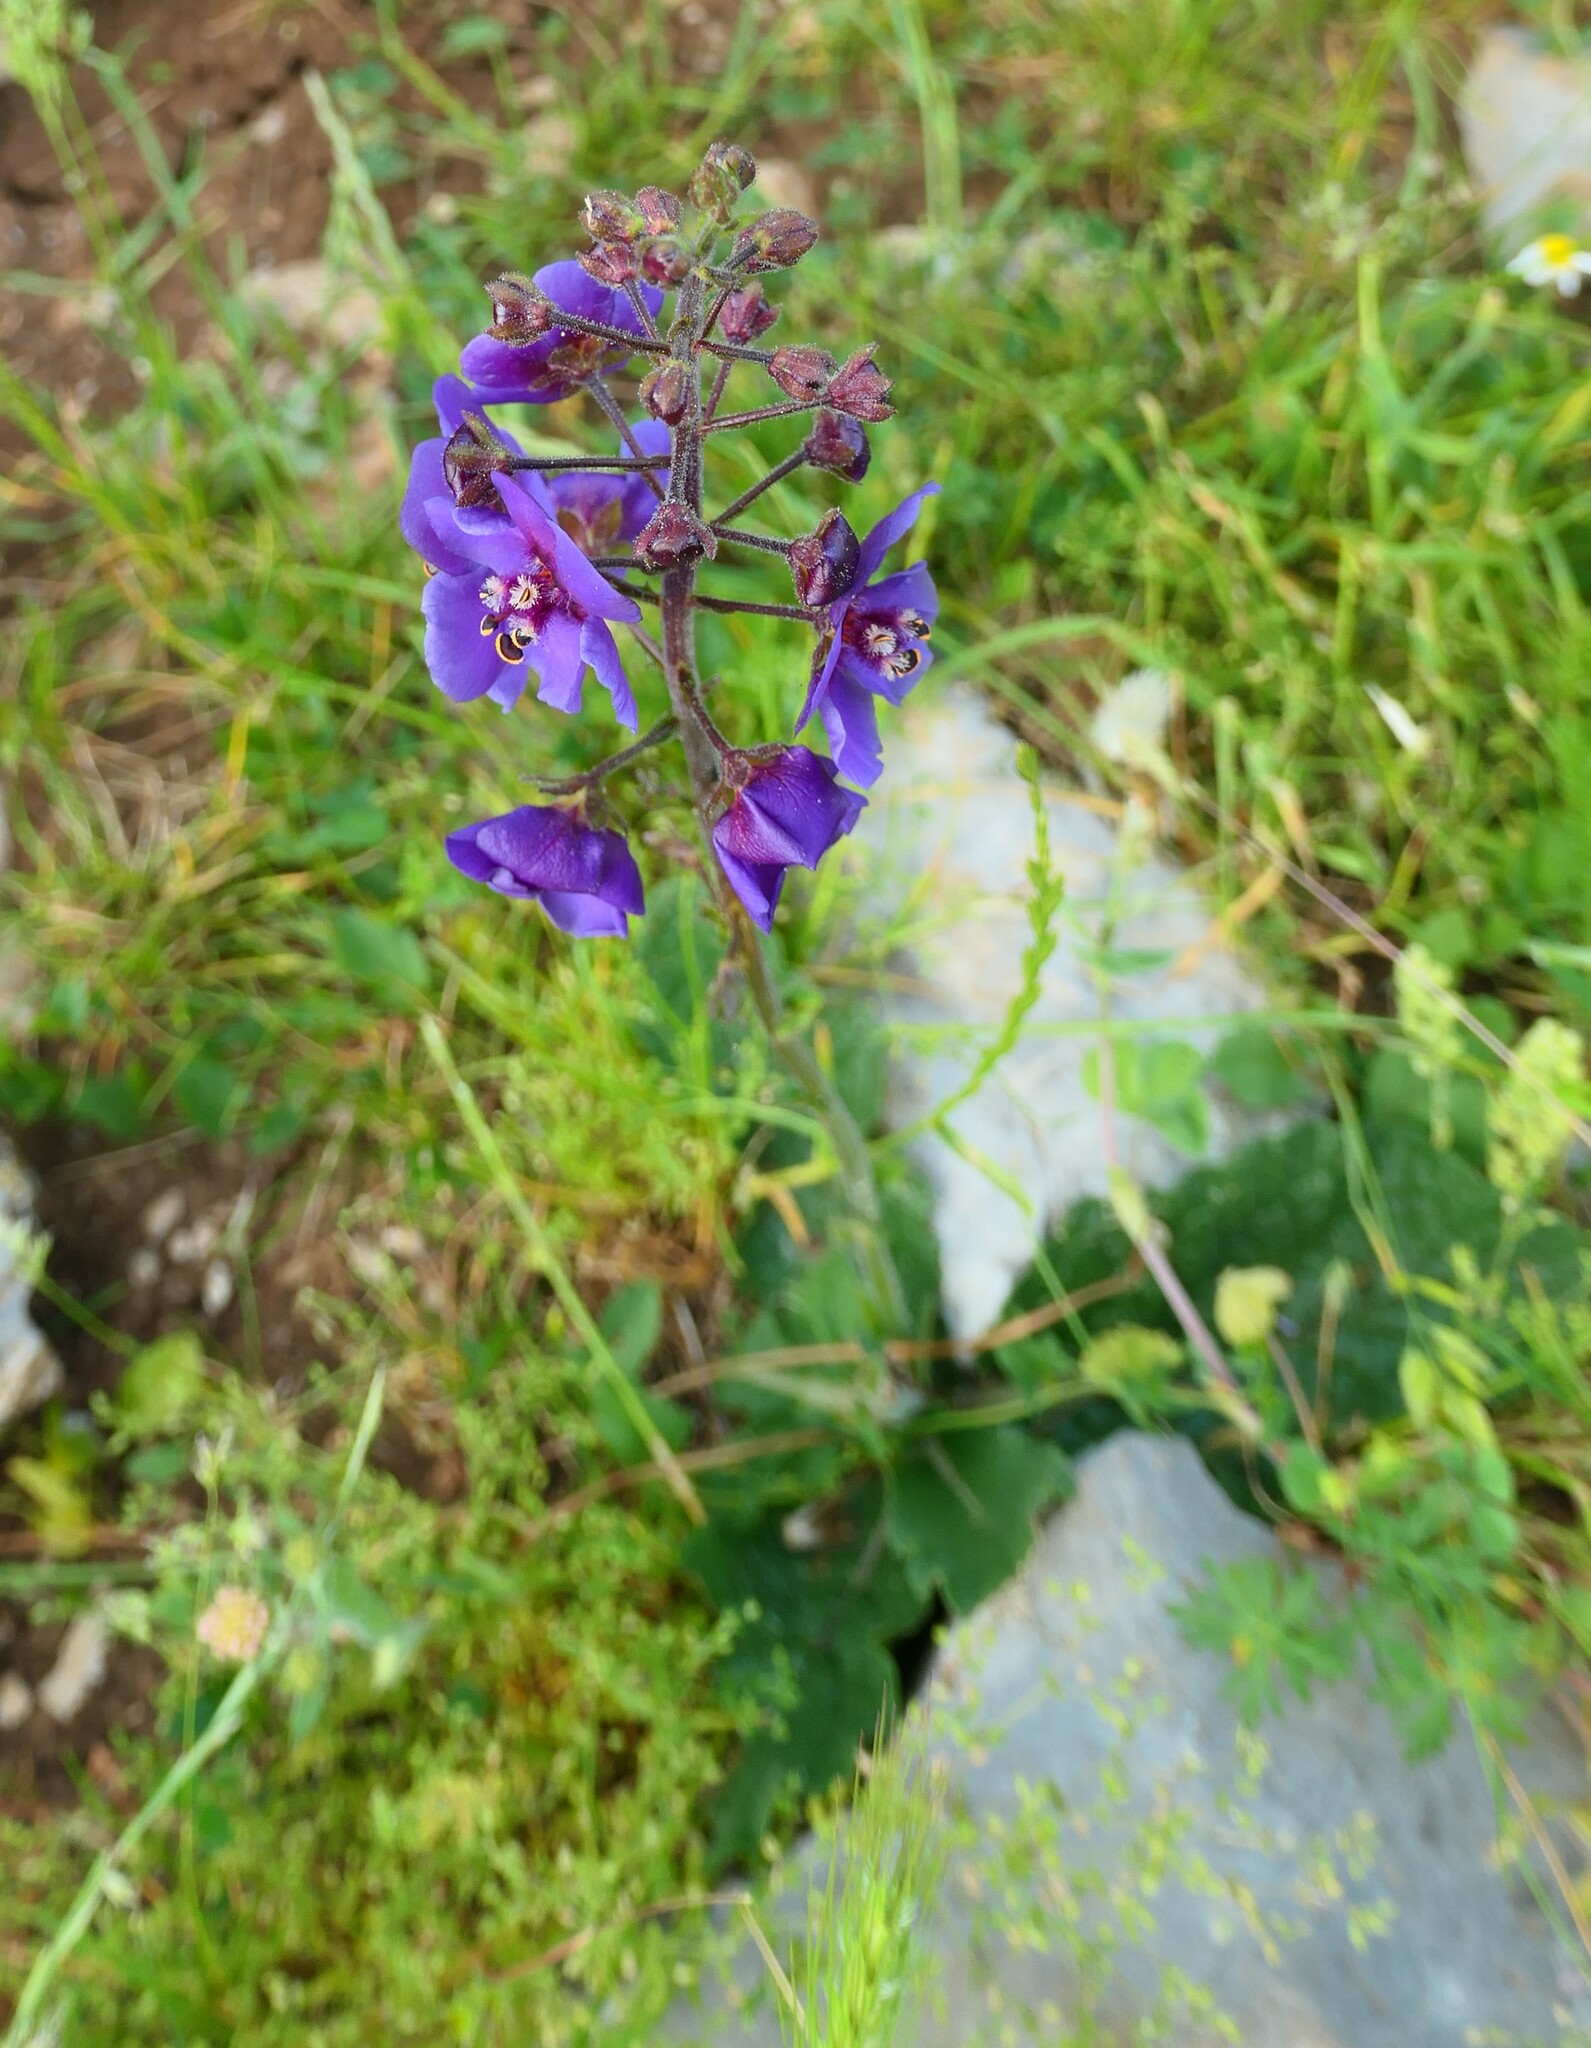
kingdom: Plantae
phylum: Tracheophyta
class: Magnoliopsida
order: Lamiales
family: Scrophulariaceae
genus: Verbascum
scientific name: Verbascum phoeniceum
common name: Purple mullein
